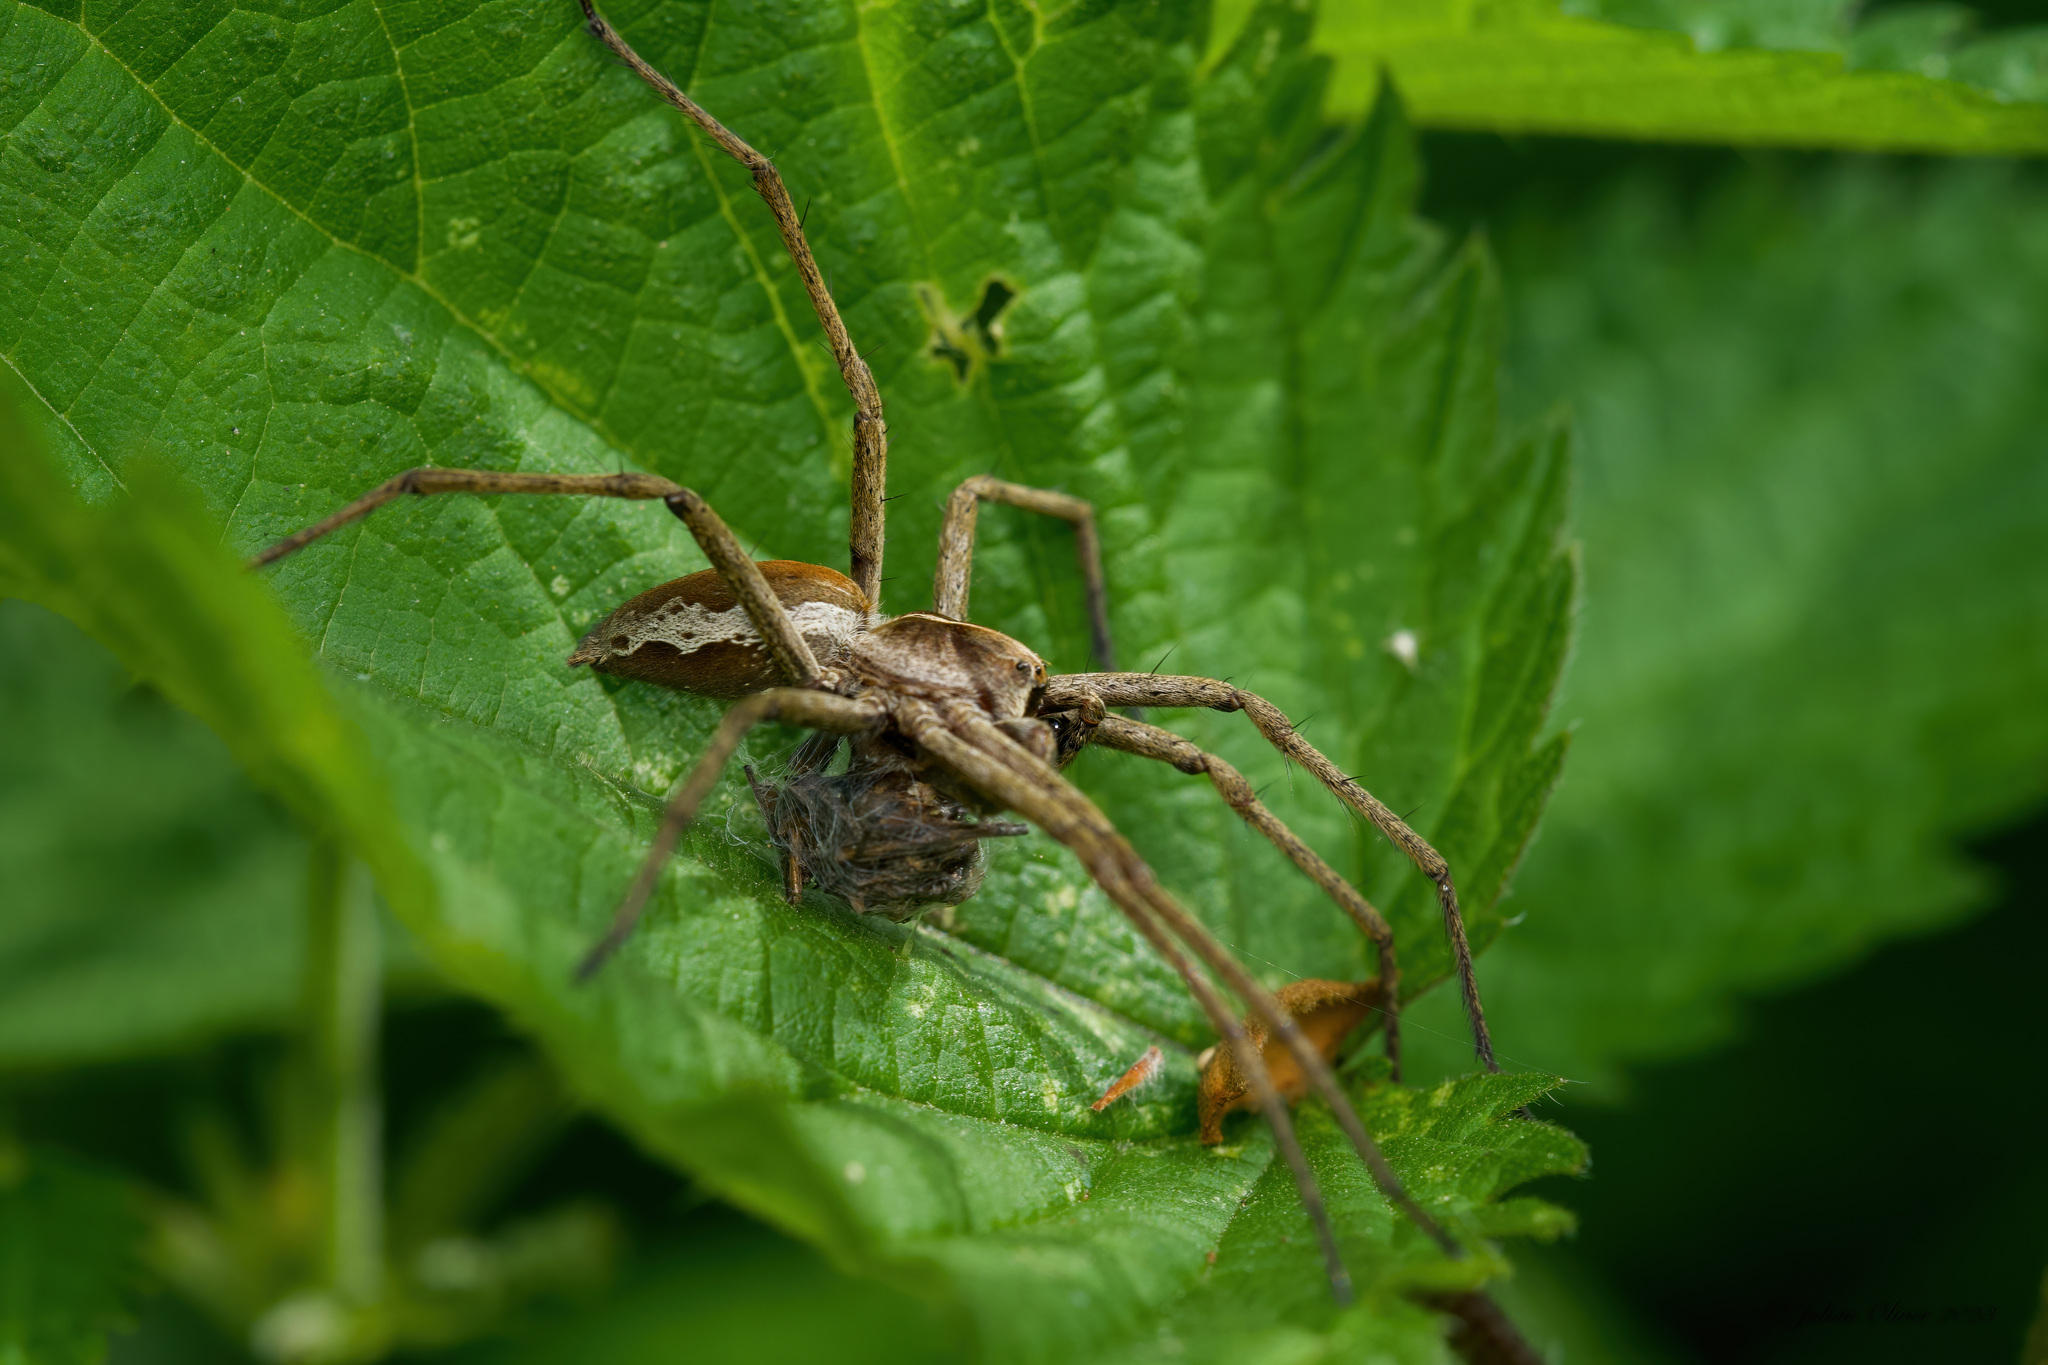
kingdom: Animalia
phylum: Arthropoda
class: Arachnida
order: Araneae
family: Pisauridae
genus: Pisaura
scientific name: Pisaura mirabilis
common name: Tent spider
